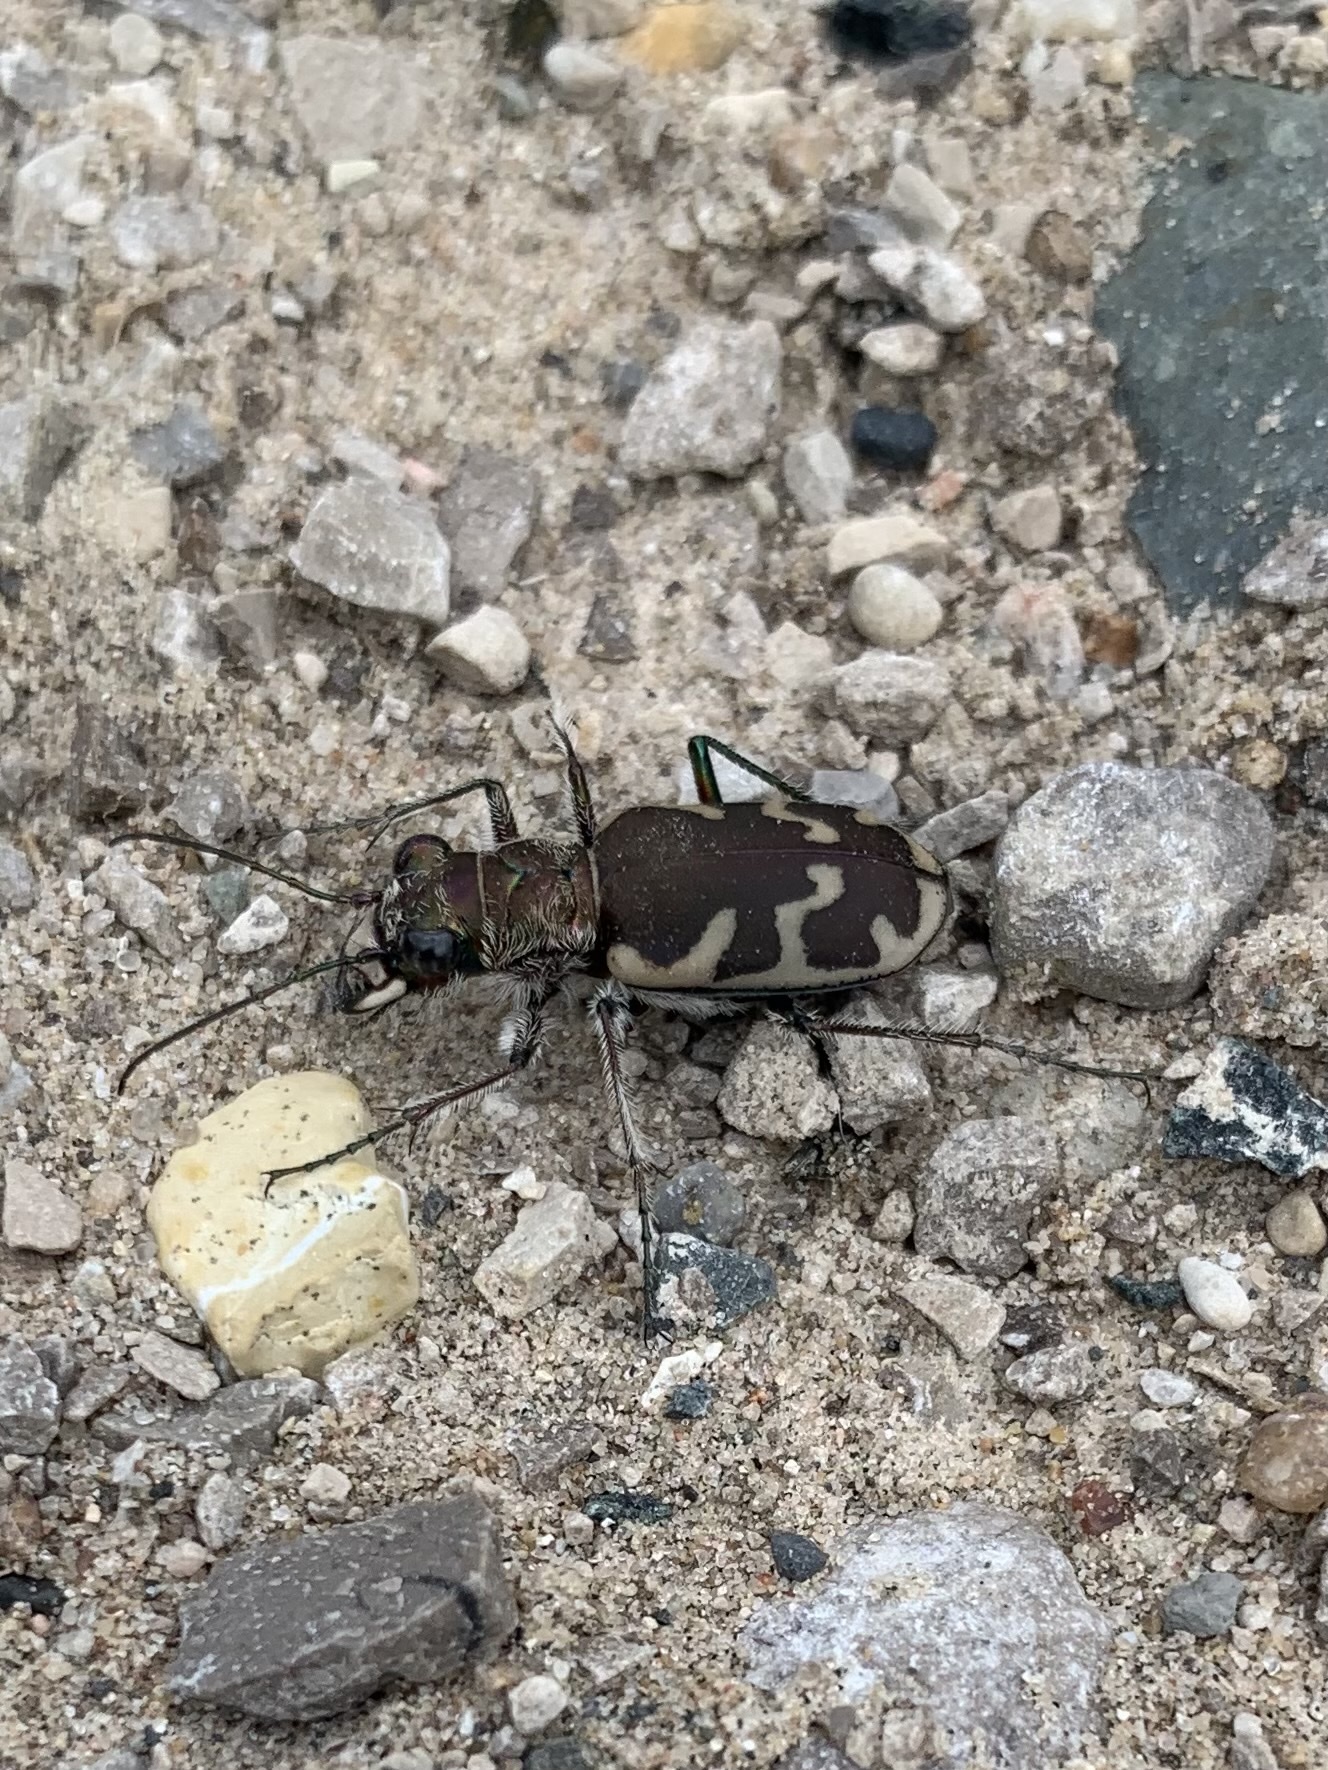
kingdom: Animalia
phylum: Arthropoda
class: Insecta
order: Coleoptera
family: Carabidae
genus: Cicindela
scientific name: Cicindela formosa
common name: Big sand tiger beetle
